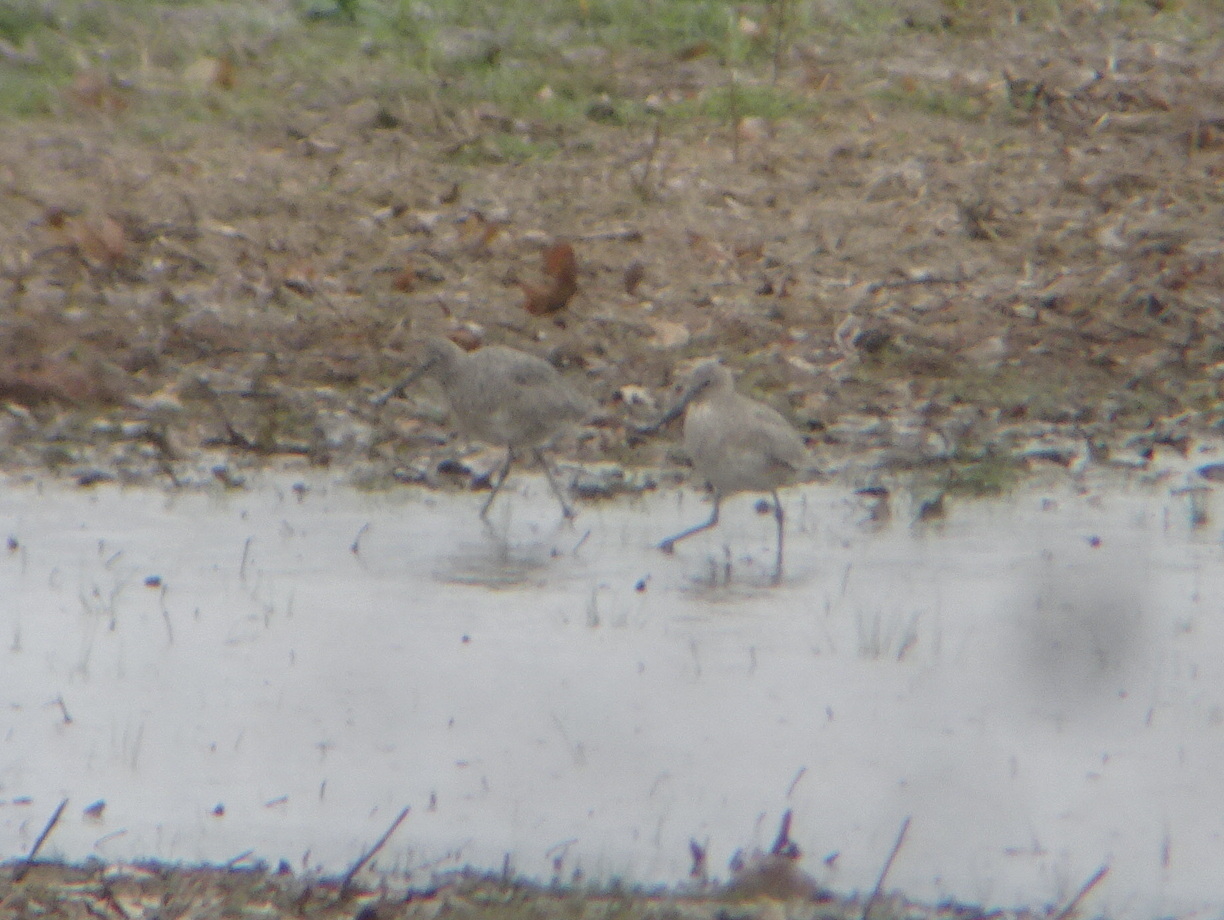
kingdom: Animalia
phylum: Chordata
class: Aves
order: Charadriiformes
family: Scolopacidae
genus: Tringa
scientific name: Tringa semipalmata
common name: Willet
